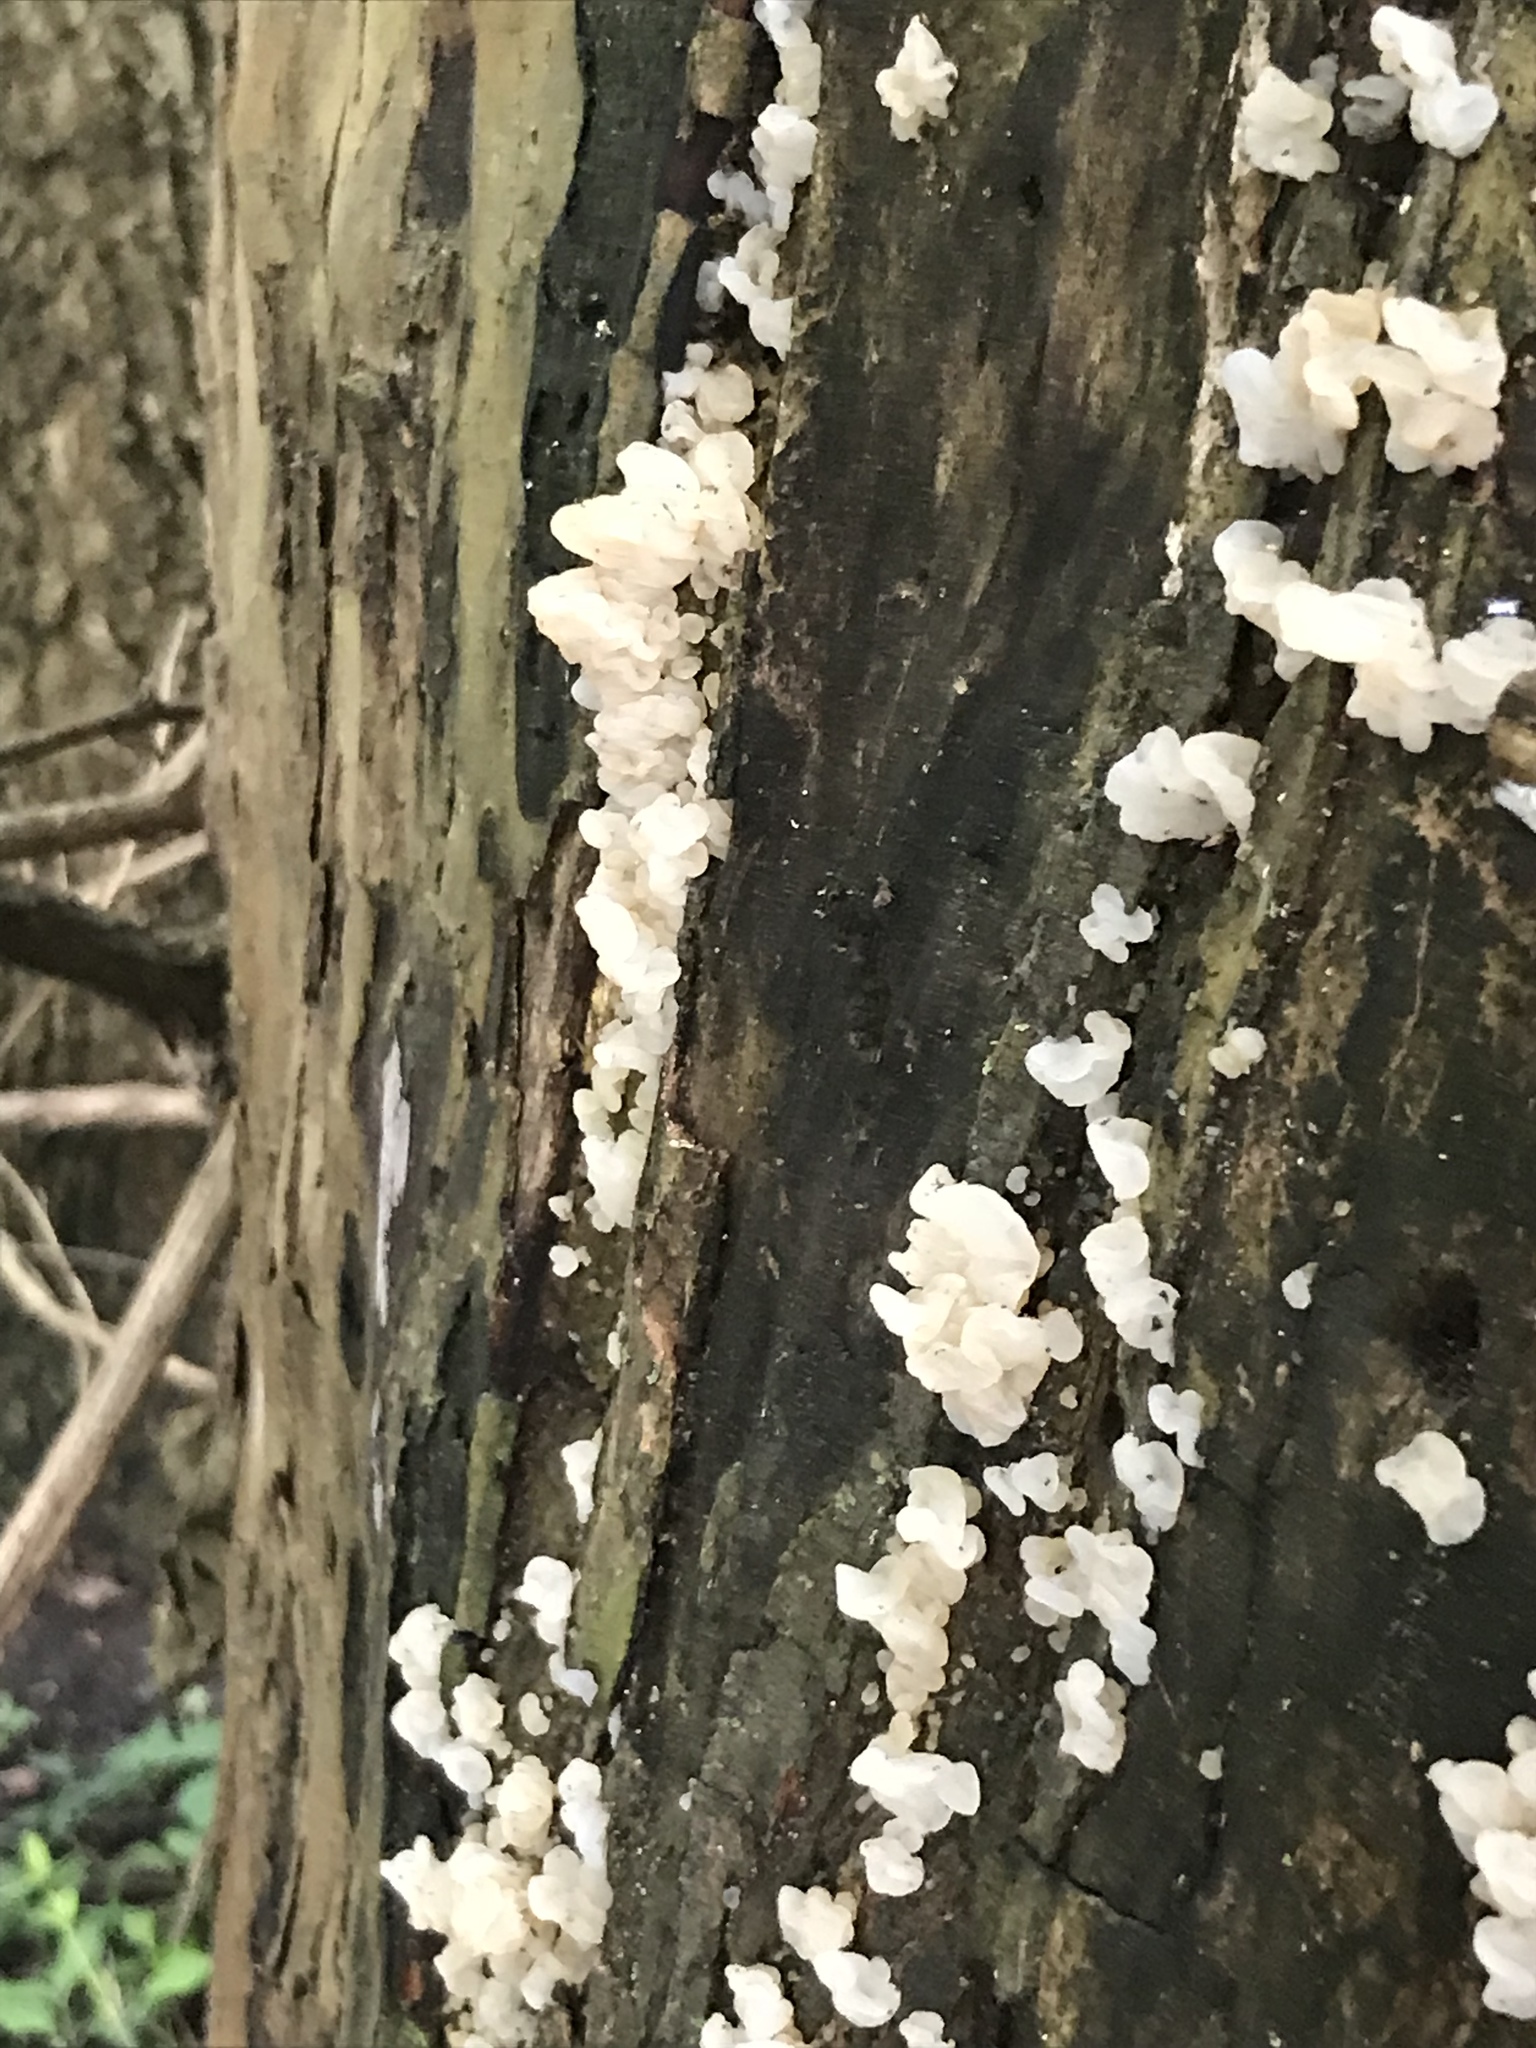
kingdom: Fungi
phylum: Basidiomycota
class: Agaricomycetes
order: Auriculariales
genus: Ductifera
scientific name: Ductifera pululahuana
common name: White jelly fungus
